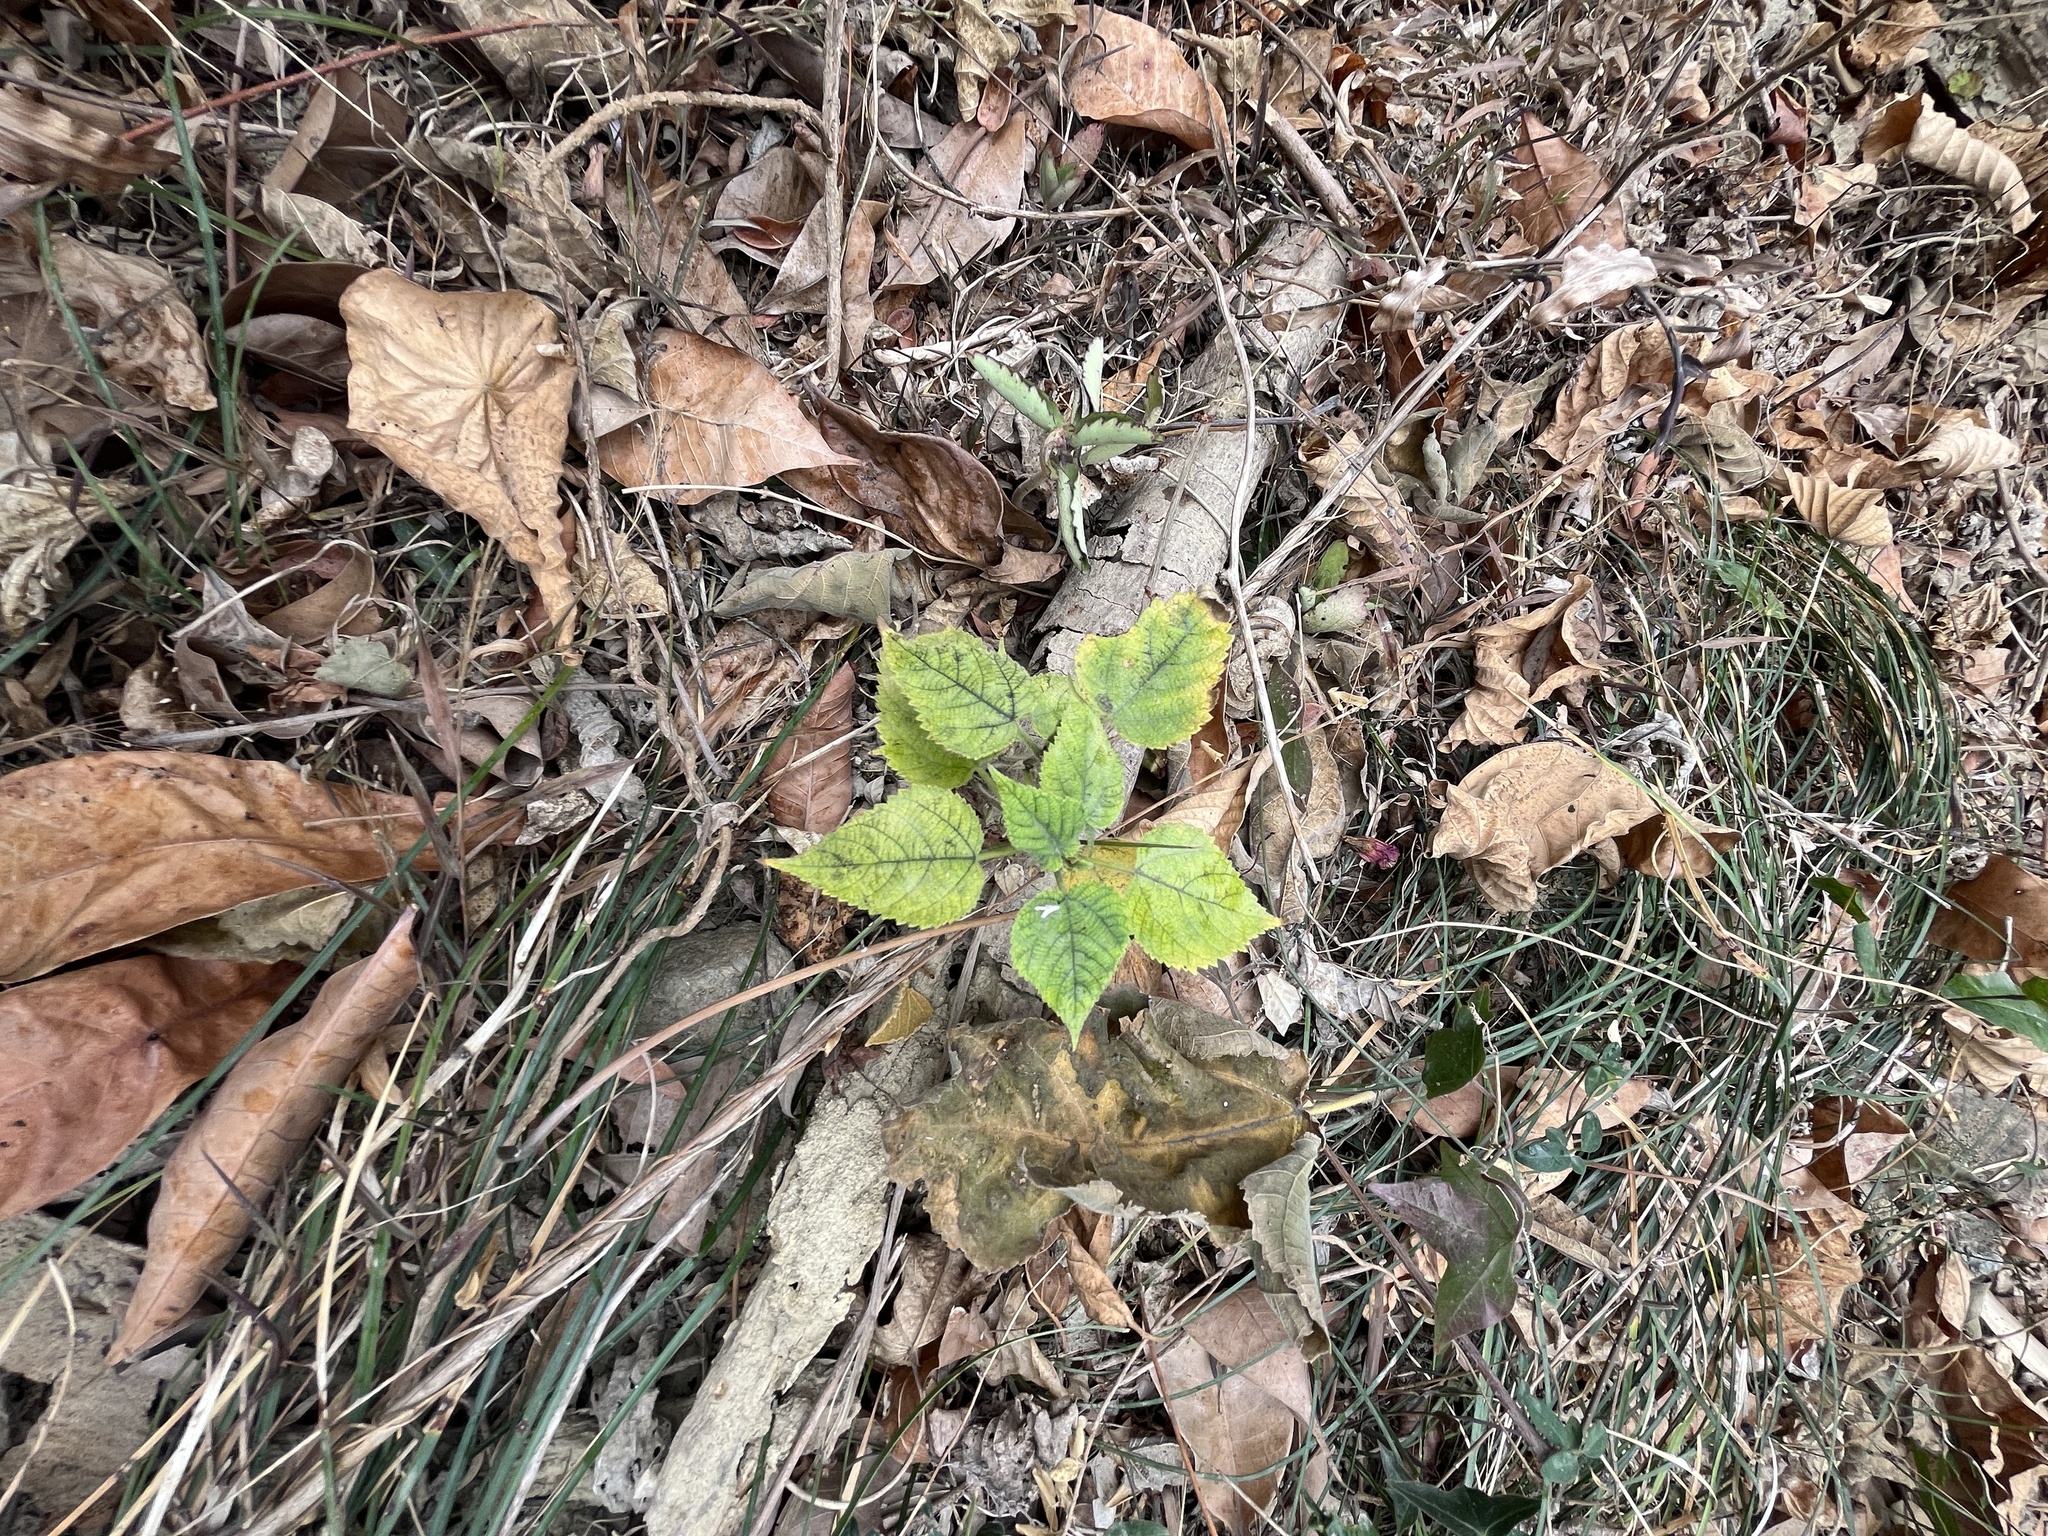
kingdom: Plantae
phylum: Tracheophyta
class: Magnoliopsida
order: Rosales
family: Moraceae
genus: Broussonetia
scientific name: Broussonetia papyrifera
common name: Paper mulberry
